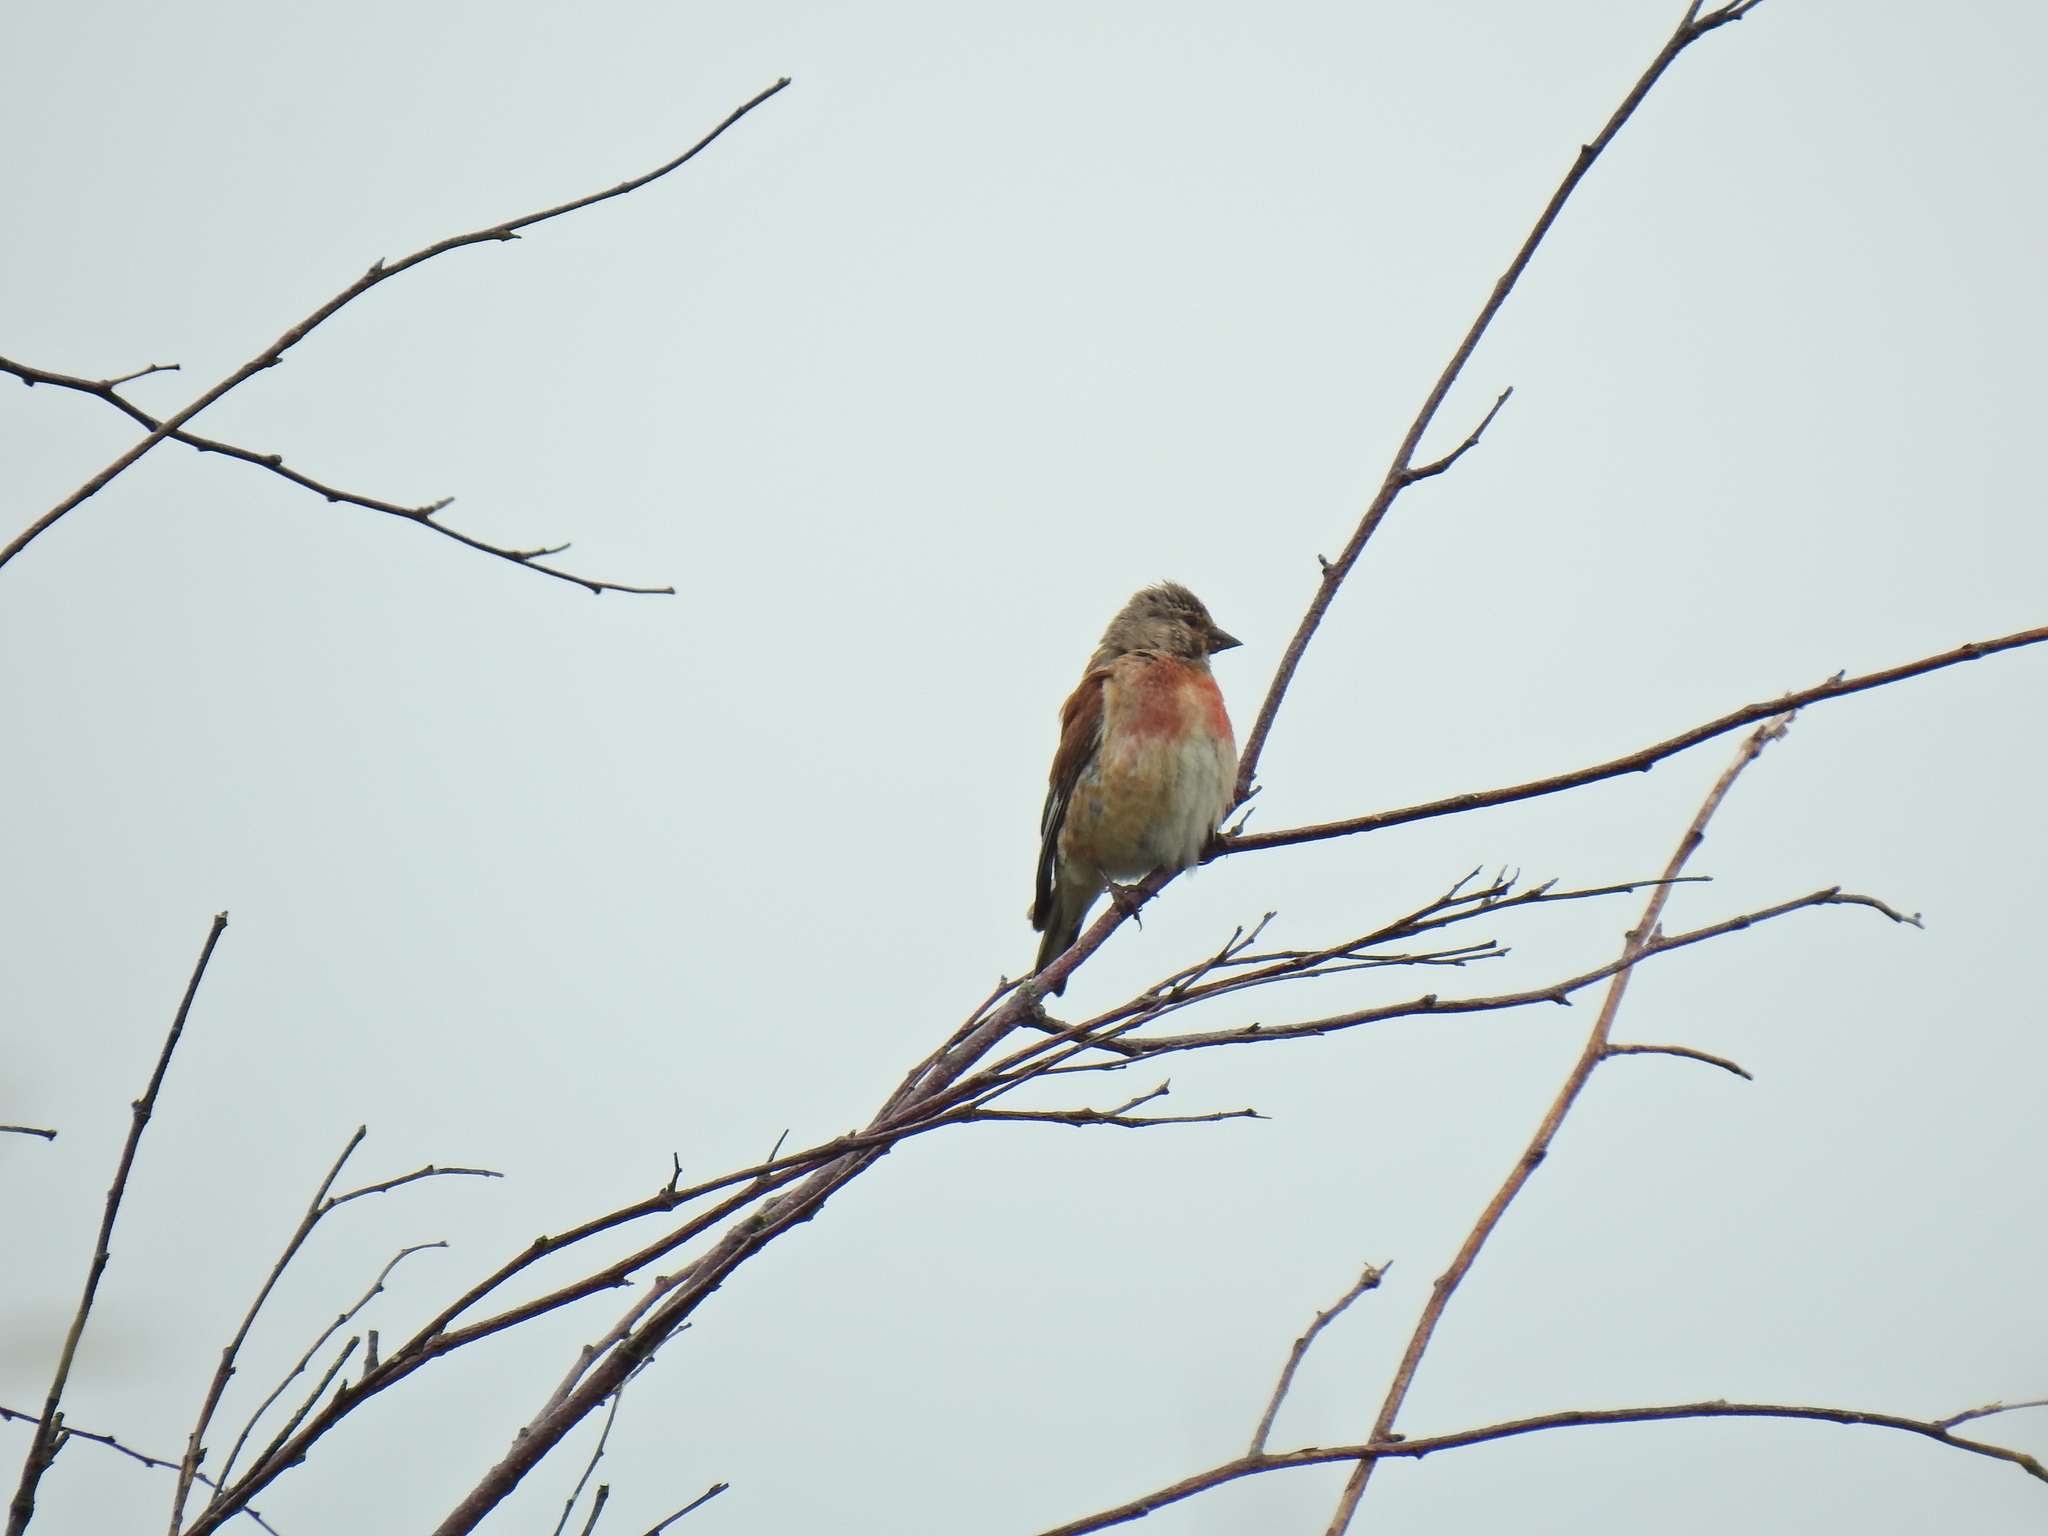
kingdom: Animalia
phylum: Chordata
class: Aves
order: Passeriformes
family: Fringillidae
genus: Linaria
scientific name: Linaria cannabina
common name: Common linnet
